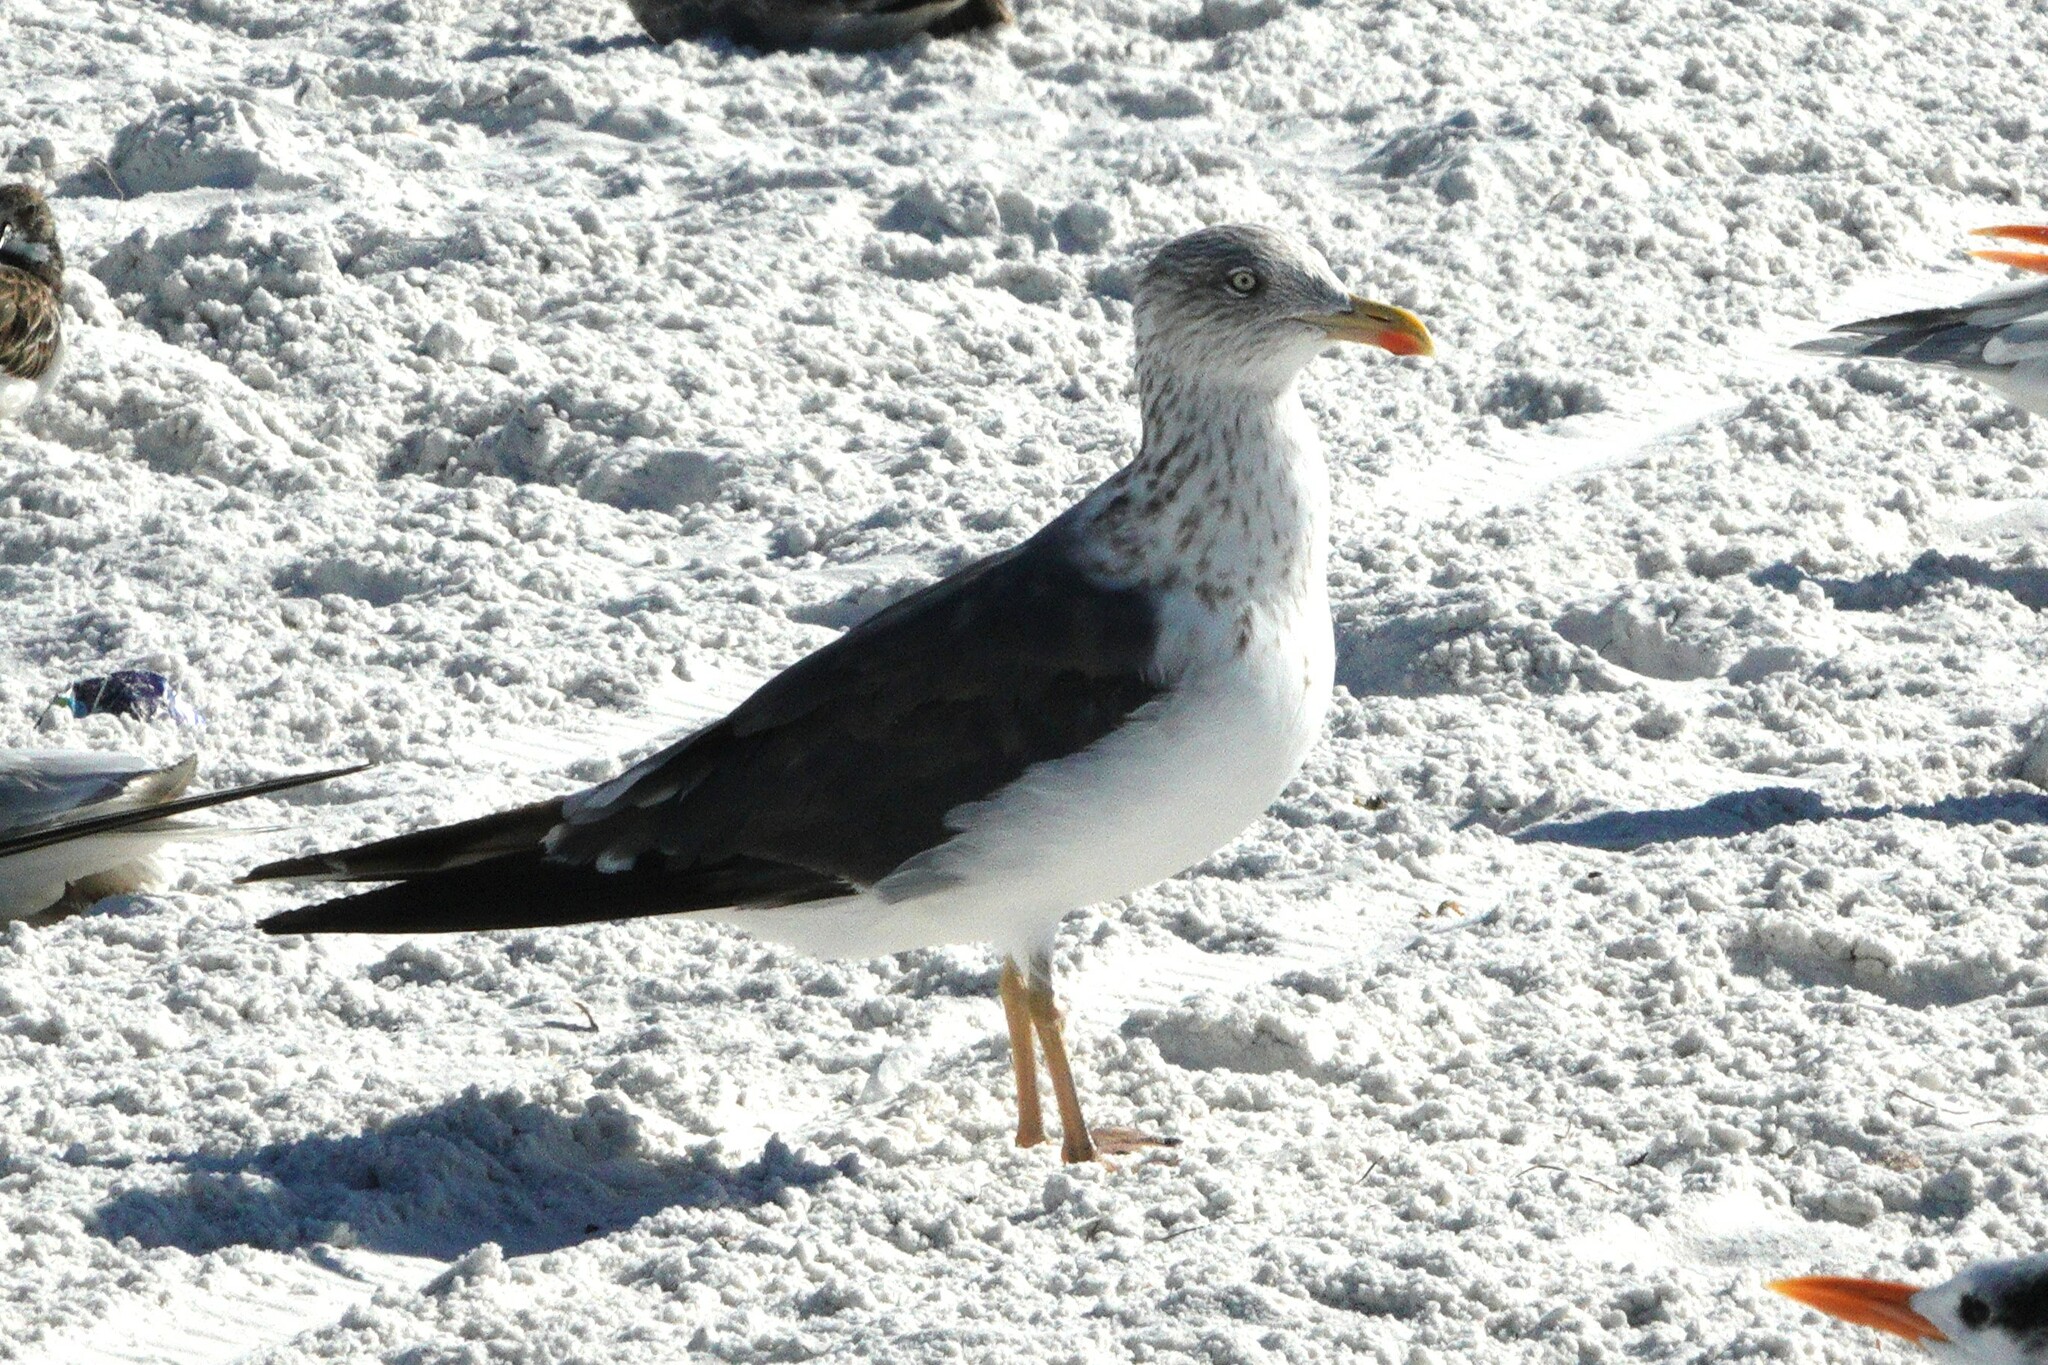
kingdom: Animalia
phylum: Chordata
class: Aves
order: Charadriiformes
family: Laridae
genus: Larus
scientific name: Larus fuscus
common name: Lesser black-backed gull
